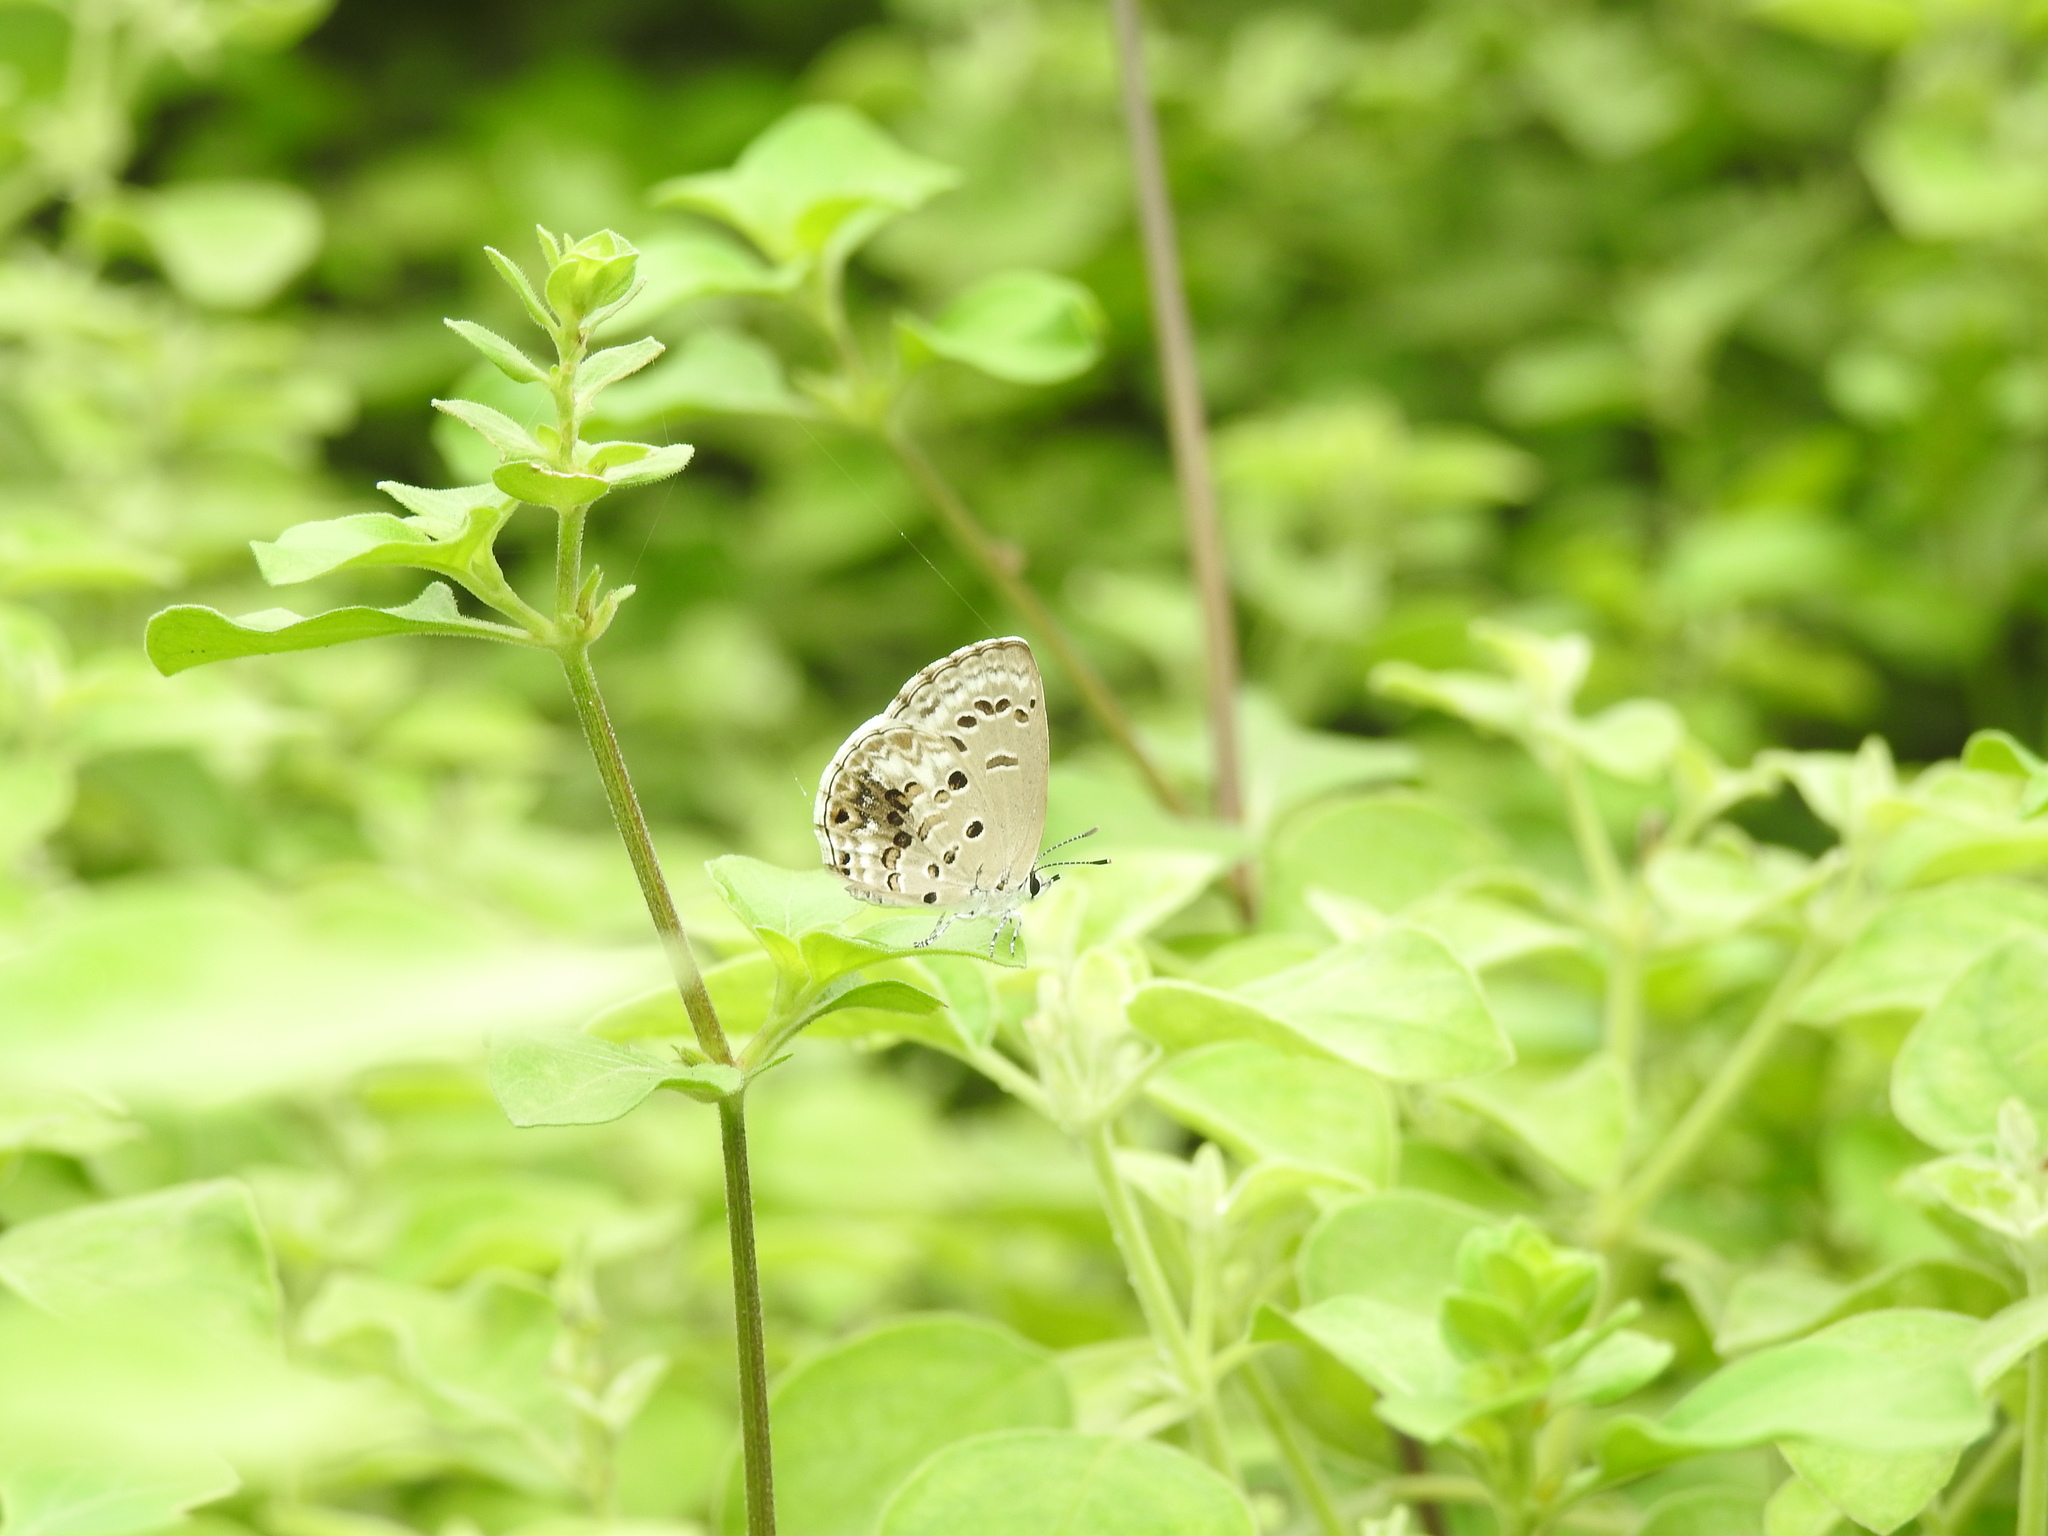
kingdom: Animalia
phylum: Arthropoda
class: Insecta
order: Lepidoptera
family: Lycaenidae
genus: Chilades
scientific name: Chilades laius
